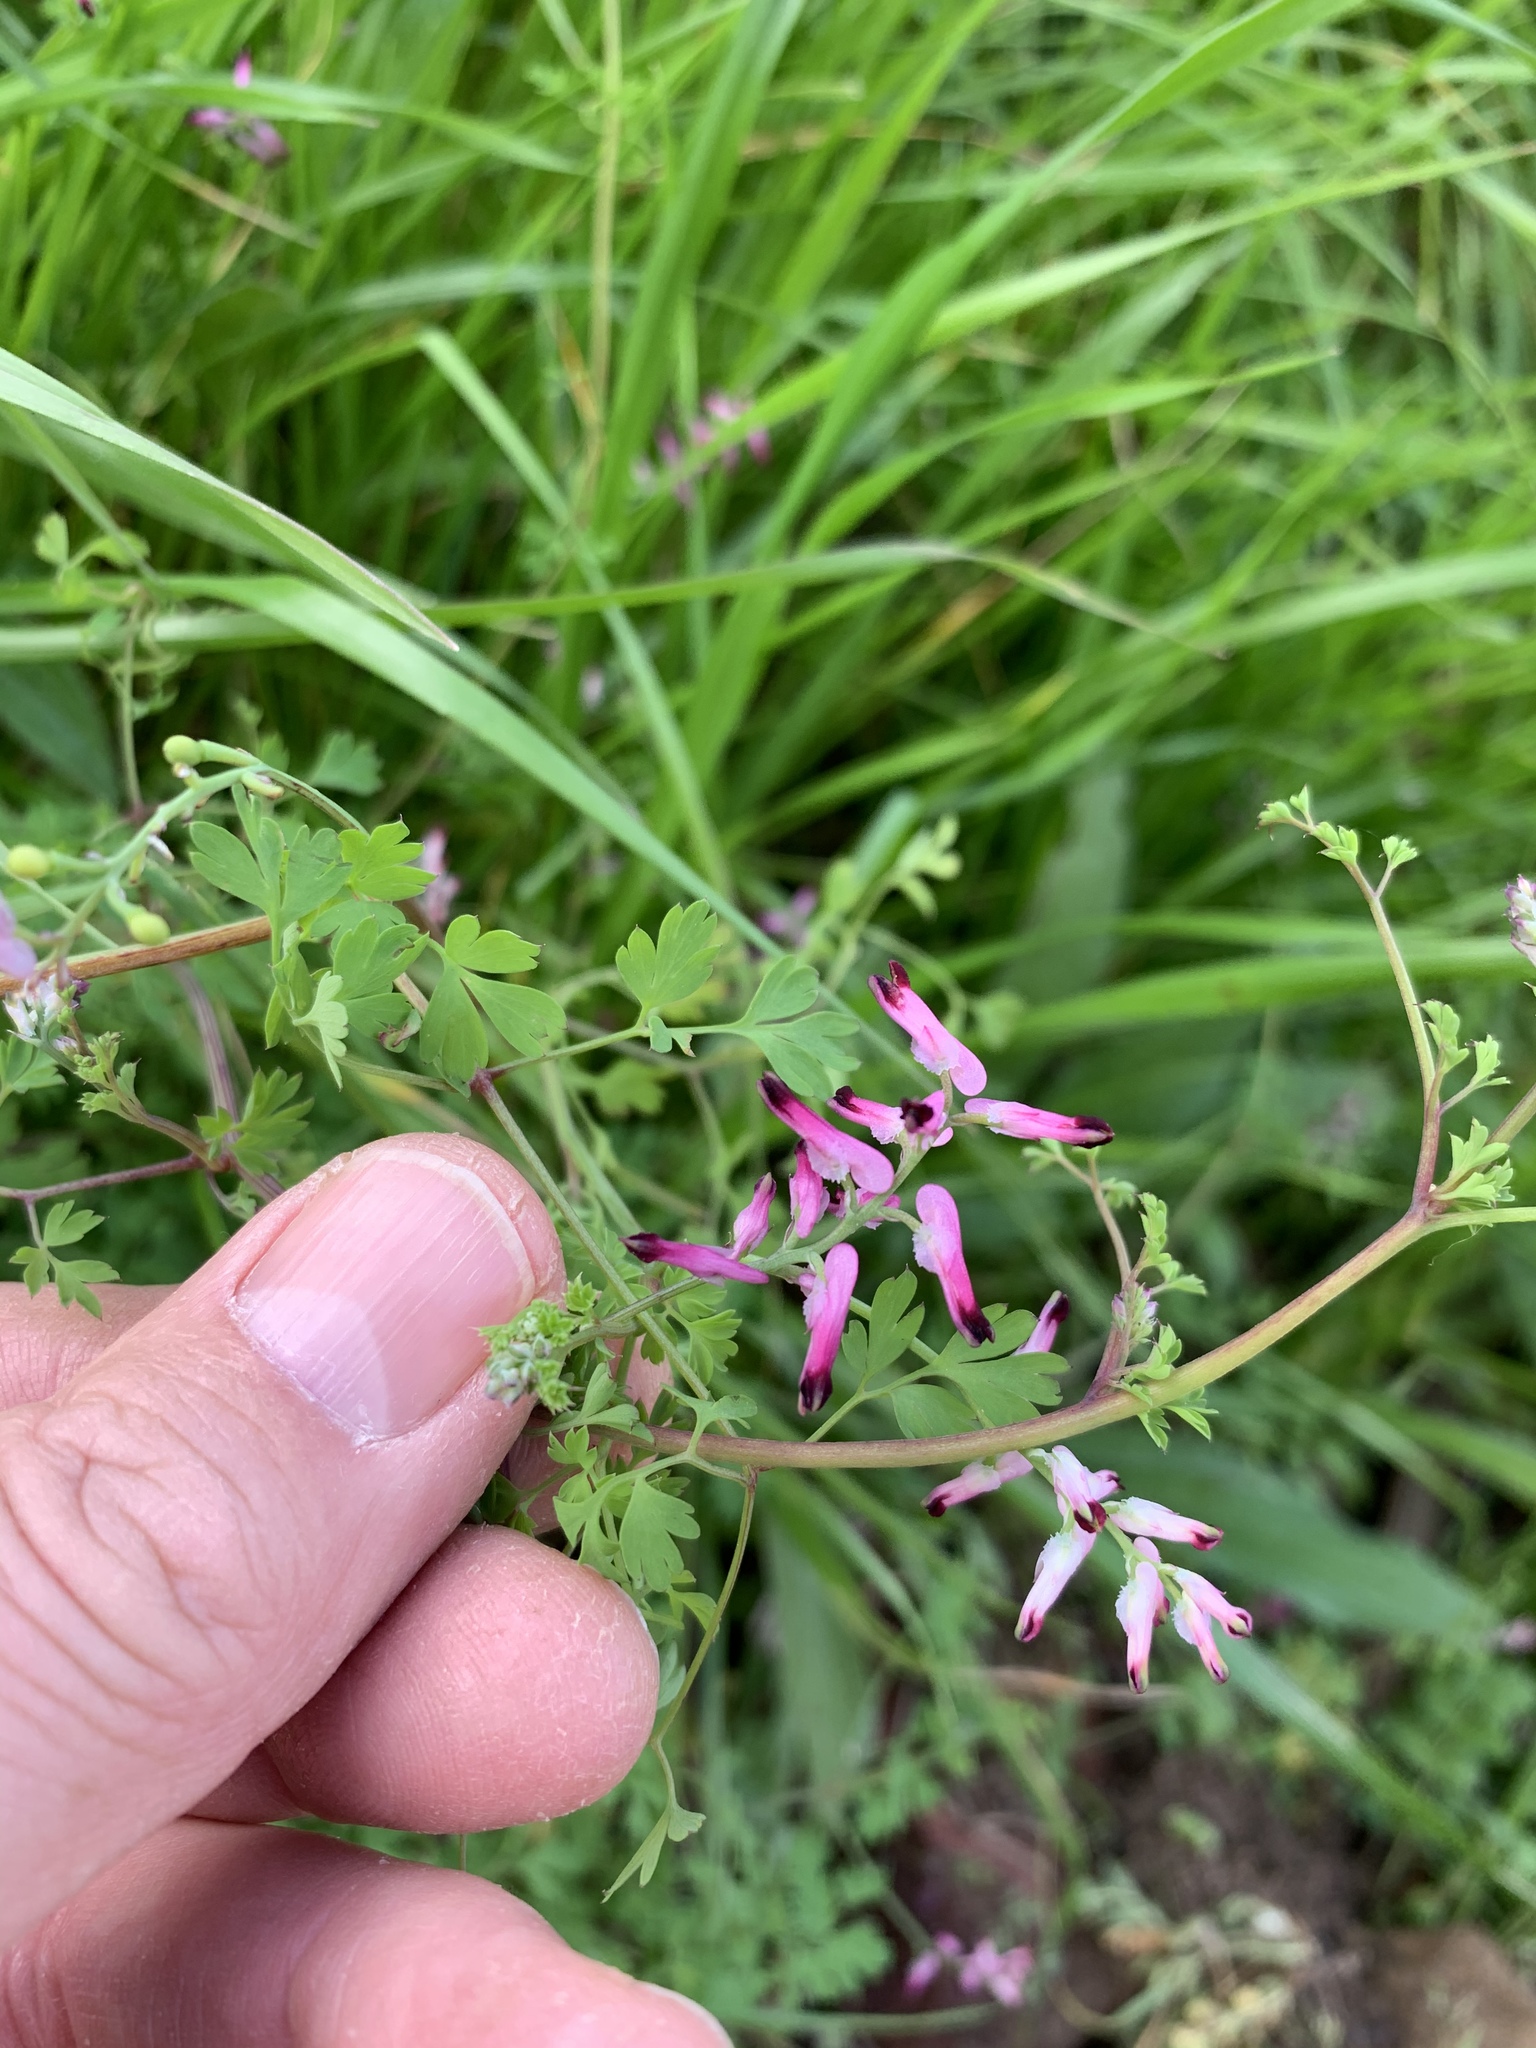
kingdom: Plantae
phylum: Tracheophyta
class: Magnoliopsida
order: Ranunculales
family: Papaveraceae
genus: Fumaria
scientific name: Fumaria muralis
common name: Common ramping-fumitory
